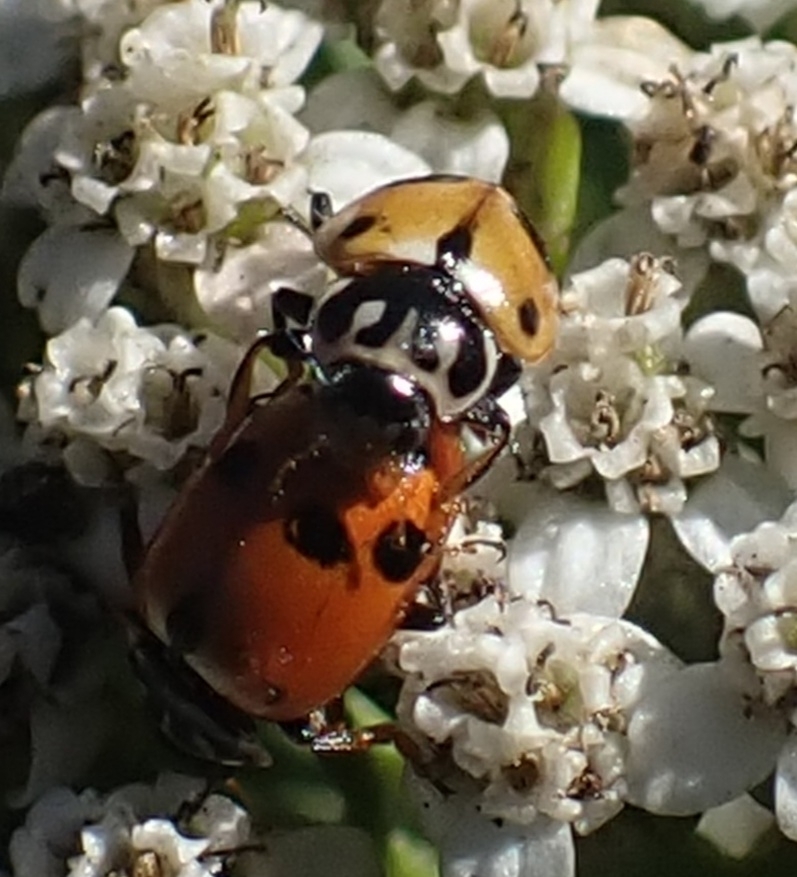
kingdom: Animalia
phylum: Arthropoda
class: Insecta
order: Coleoptera
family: Coccinellidae
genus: Hippodamia
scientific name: Hippodamia variegata
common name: Ladybird beetle
